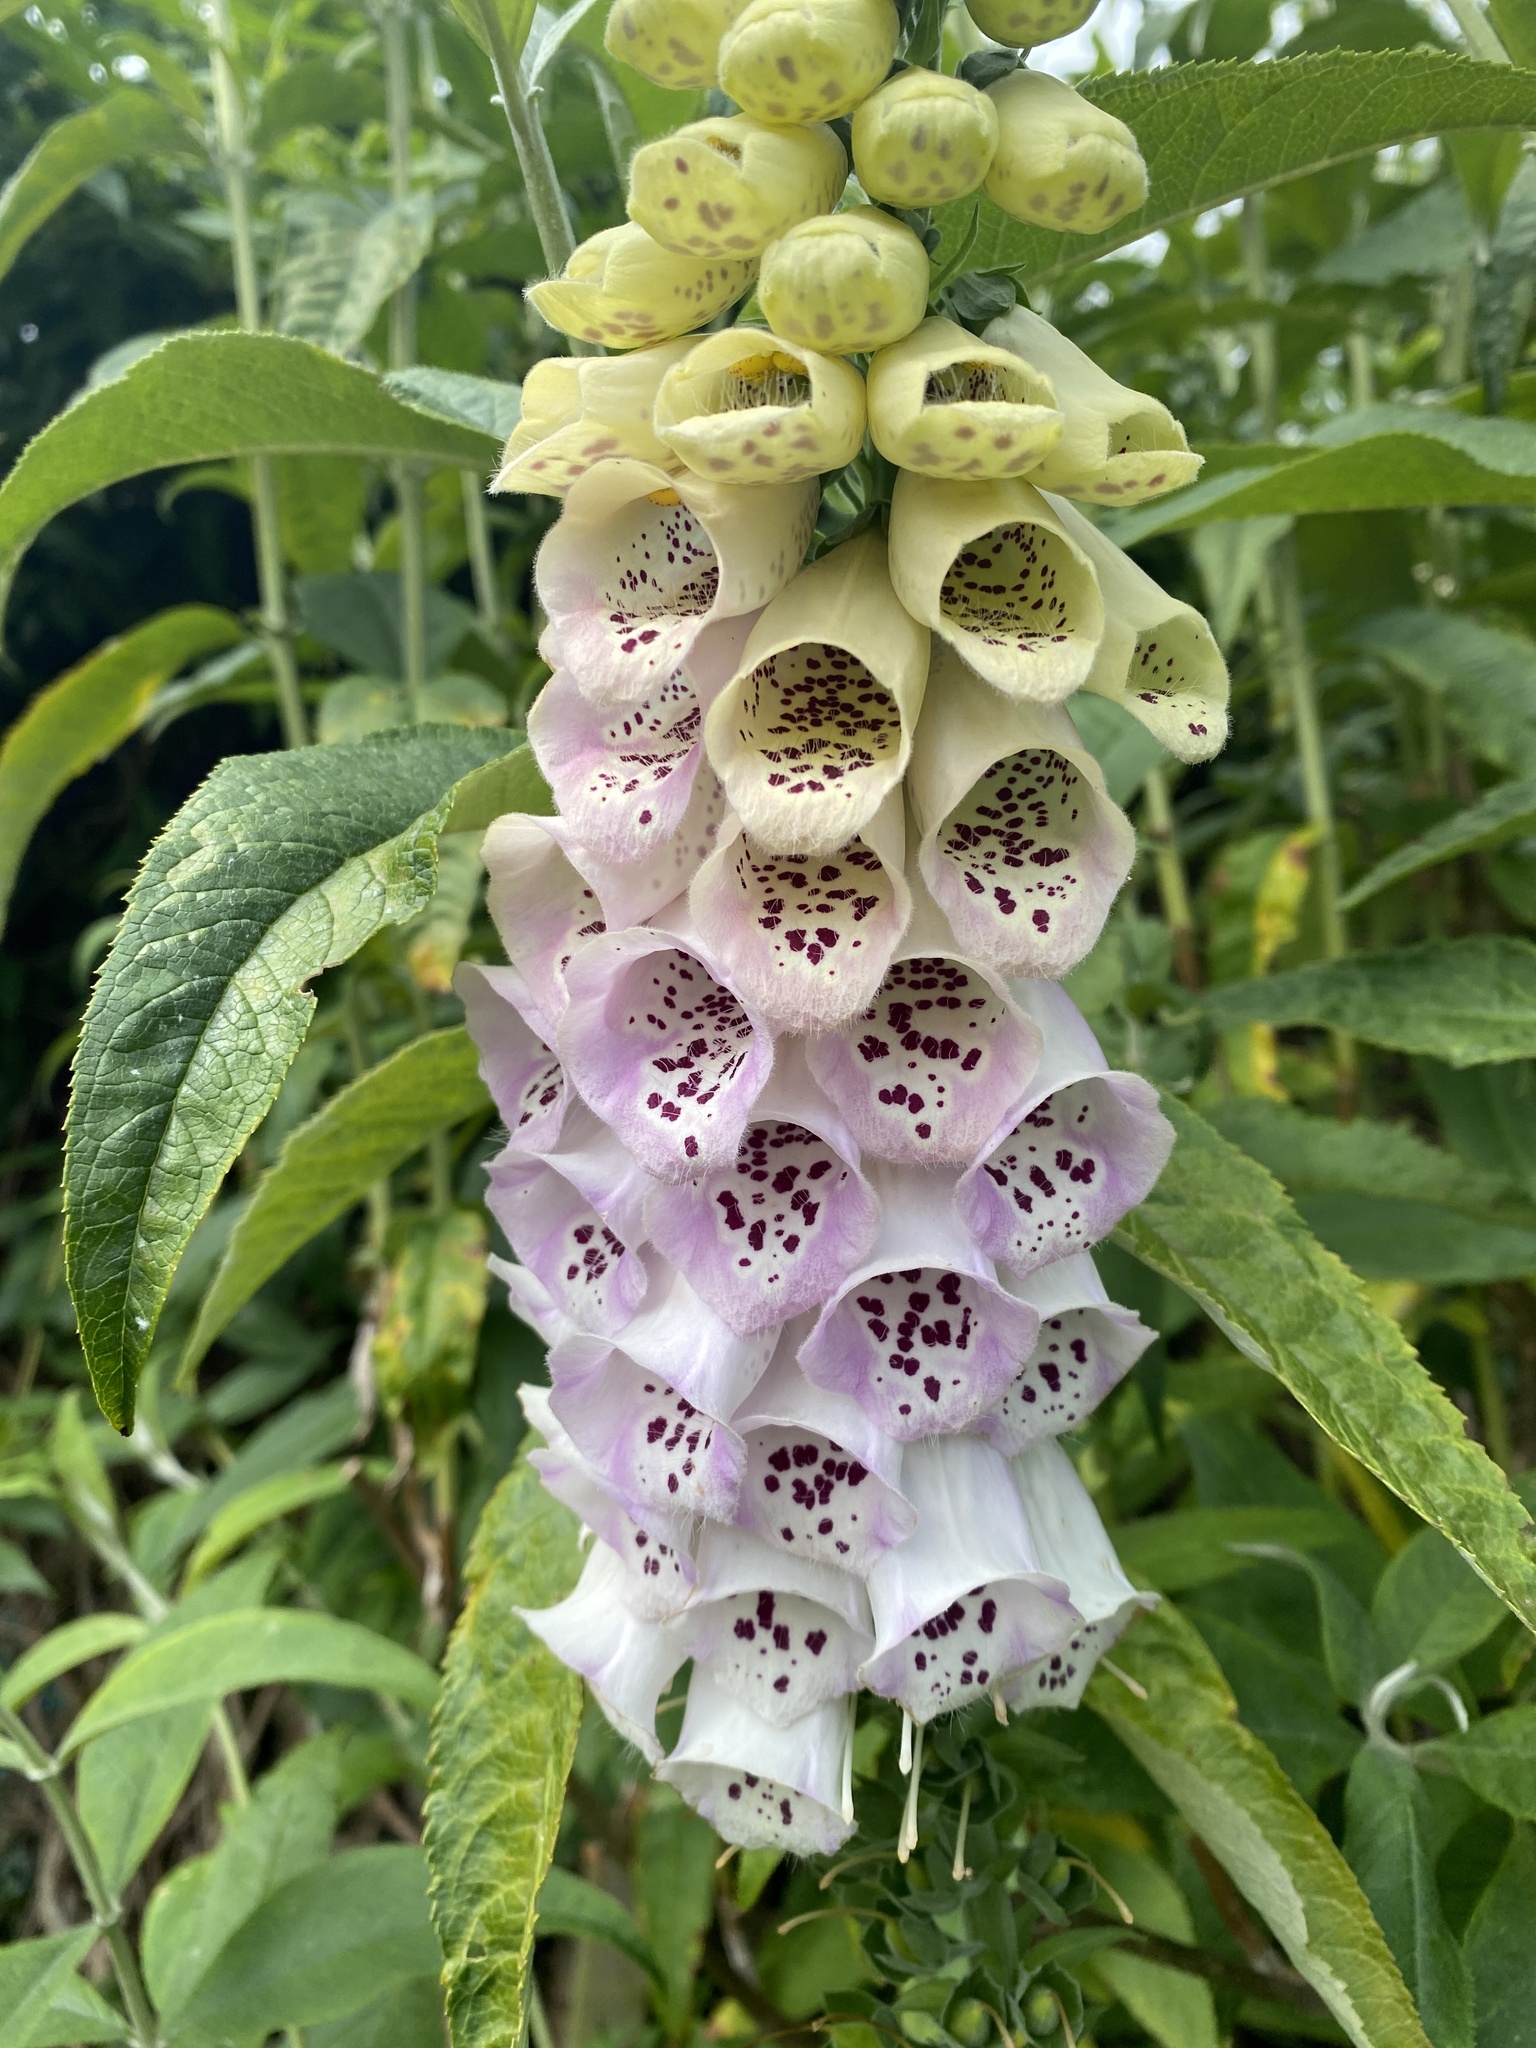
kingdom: Plantae
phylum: Tracheophyta
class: Magnoliopsida
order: Lamiales
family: Plantaginaceae
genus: Digitalis
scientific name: Digitalis purpurea
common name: Foxglove
